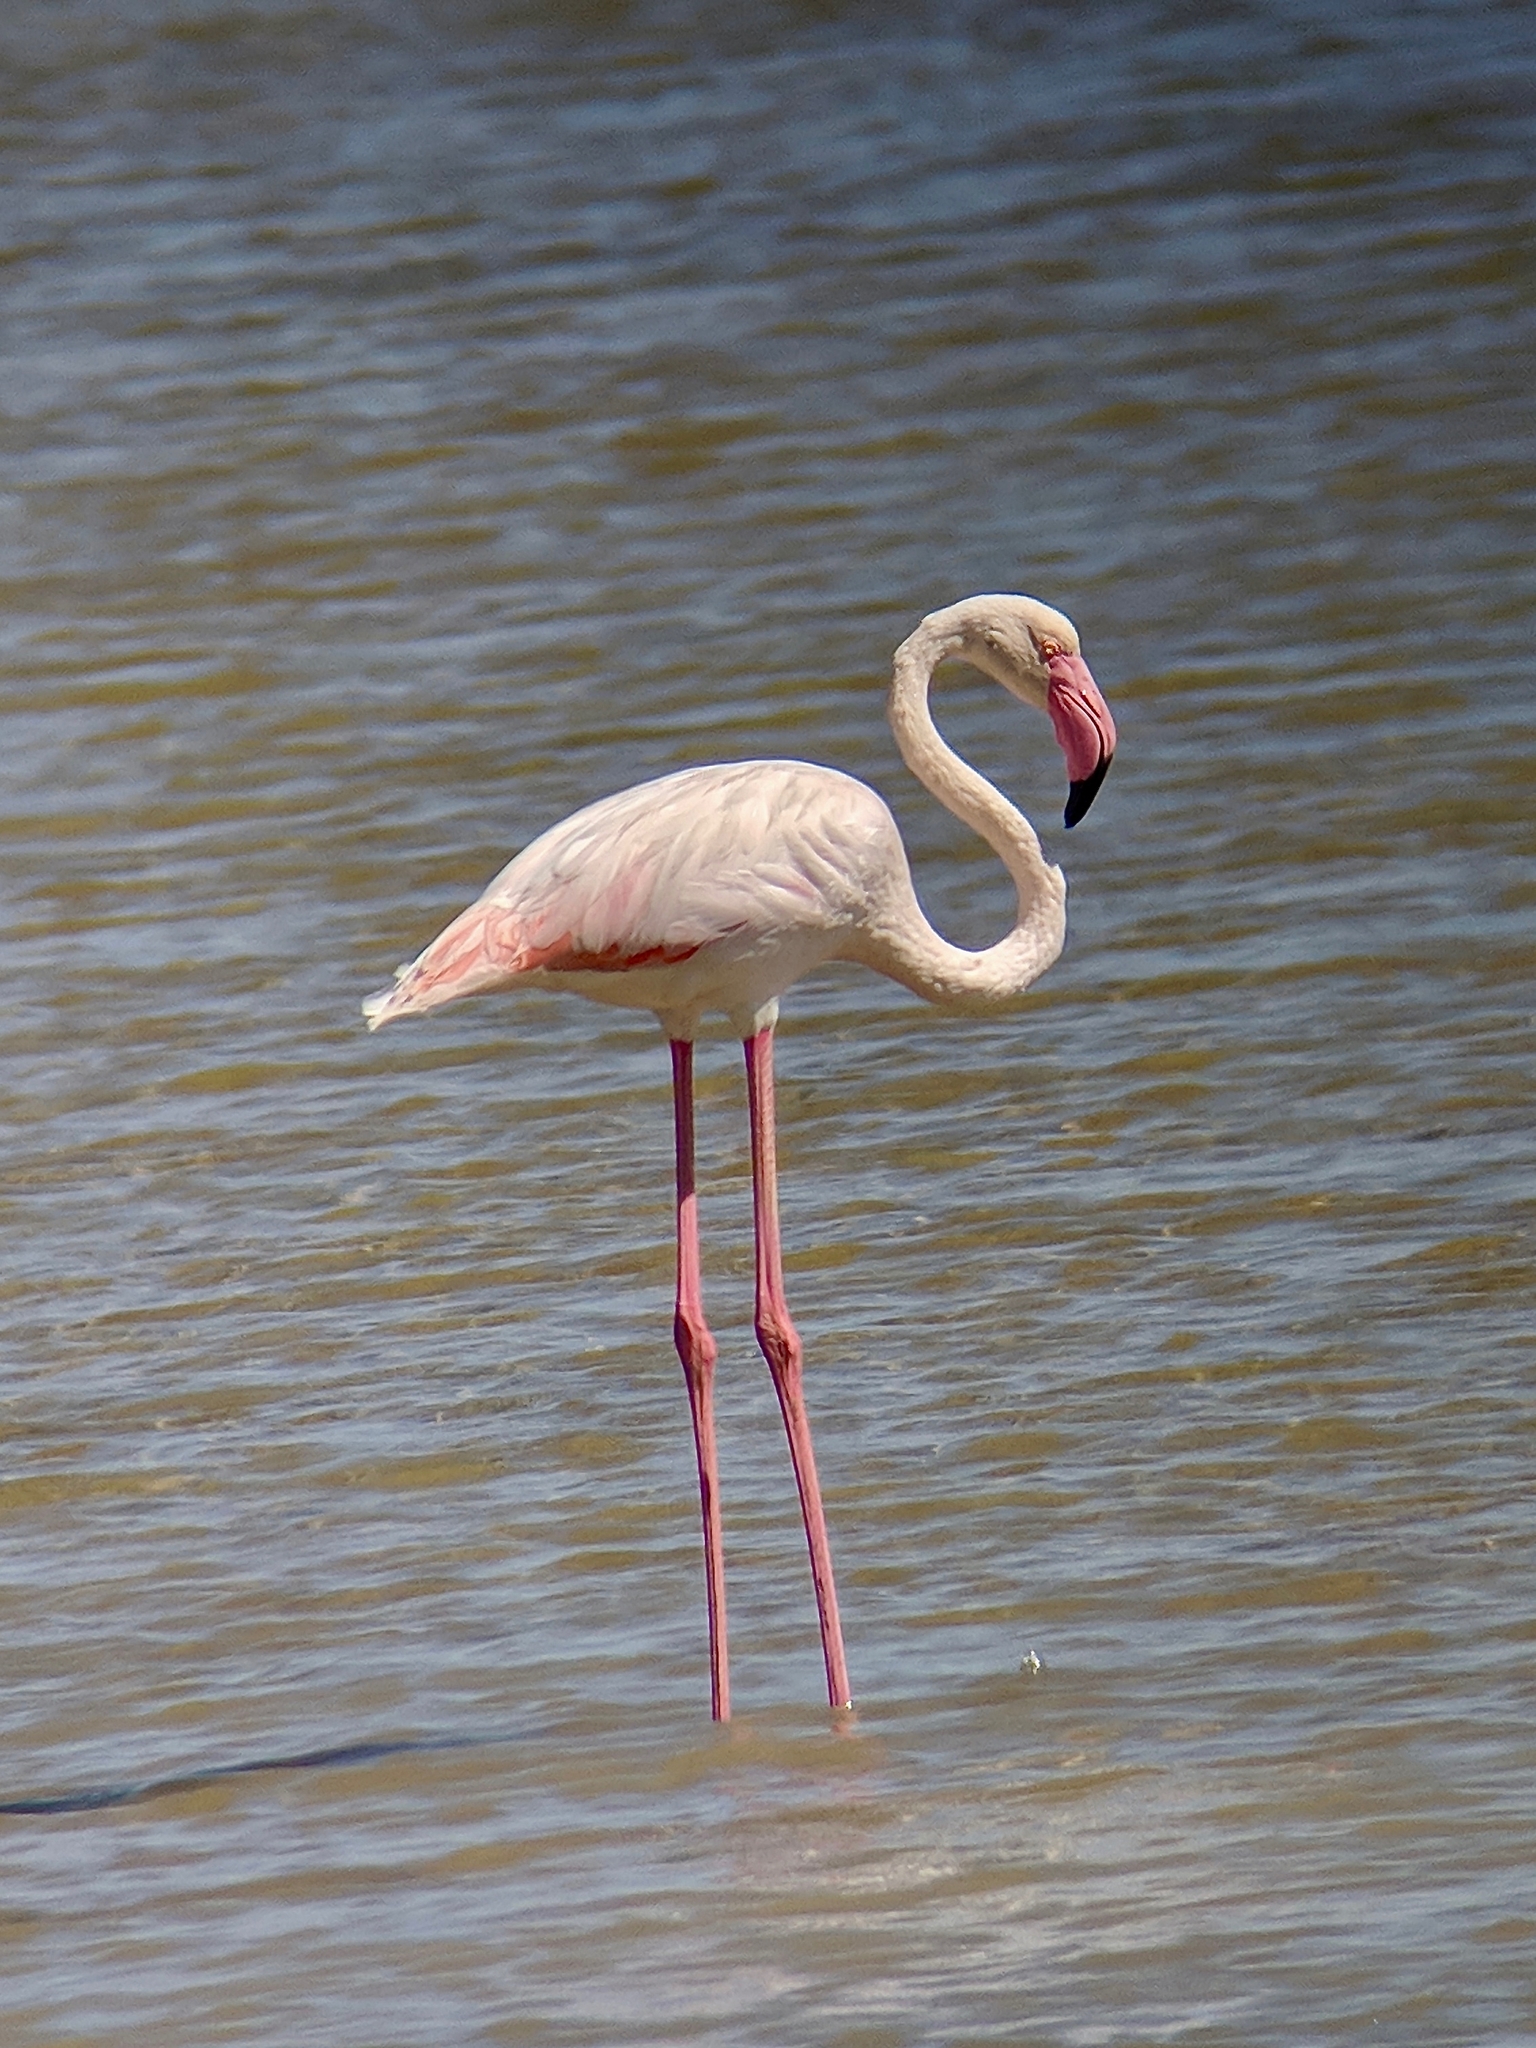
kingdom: Animalia
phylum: Chordata
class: Aves
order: Phoenicopteriformes
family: Phoenicopteridae
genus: Phoenicopterus
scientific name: Phoenicopterus roseus
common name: Greater flamingo
